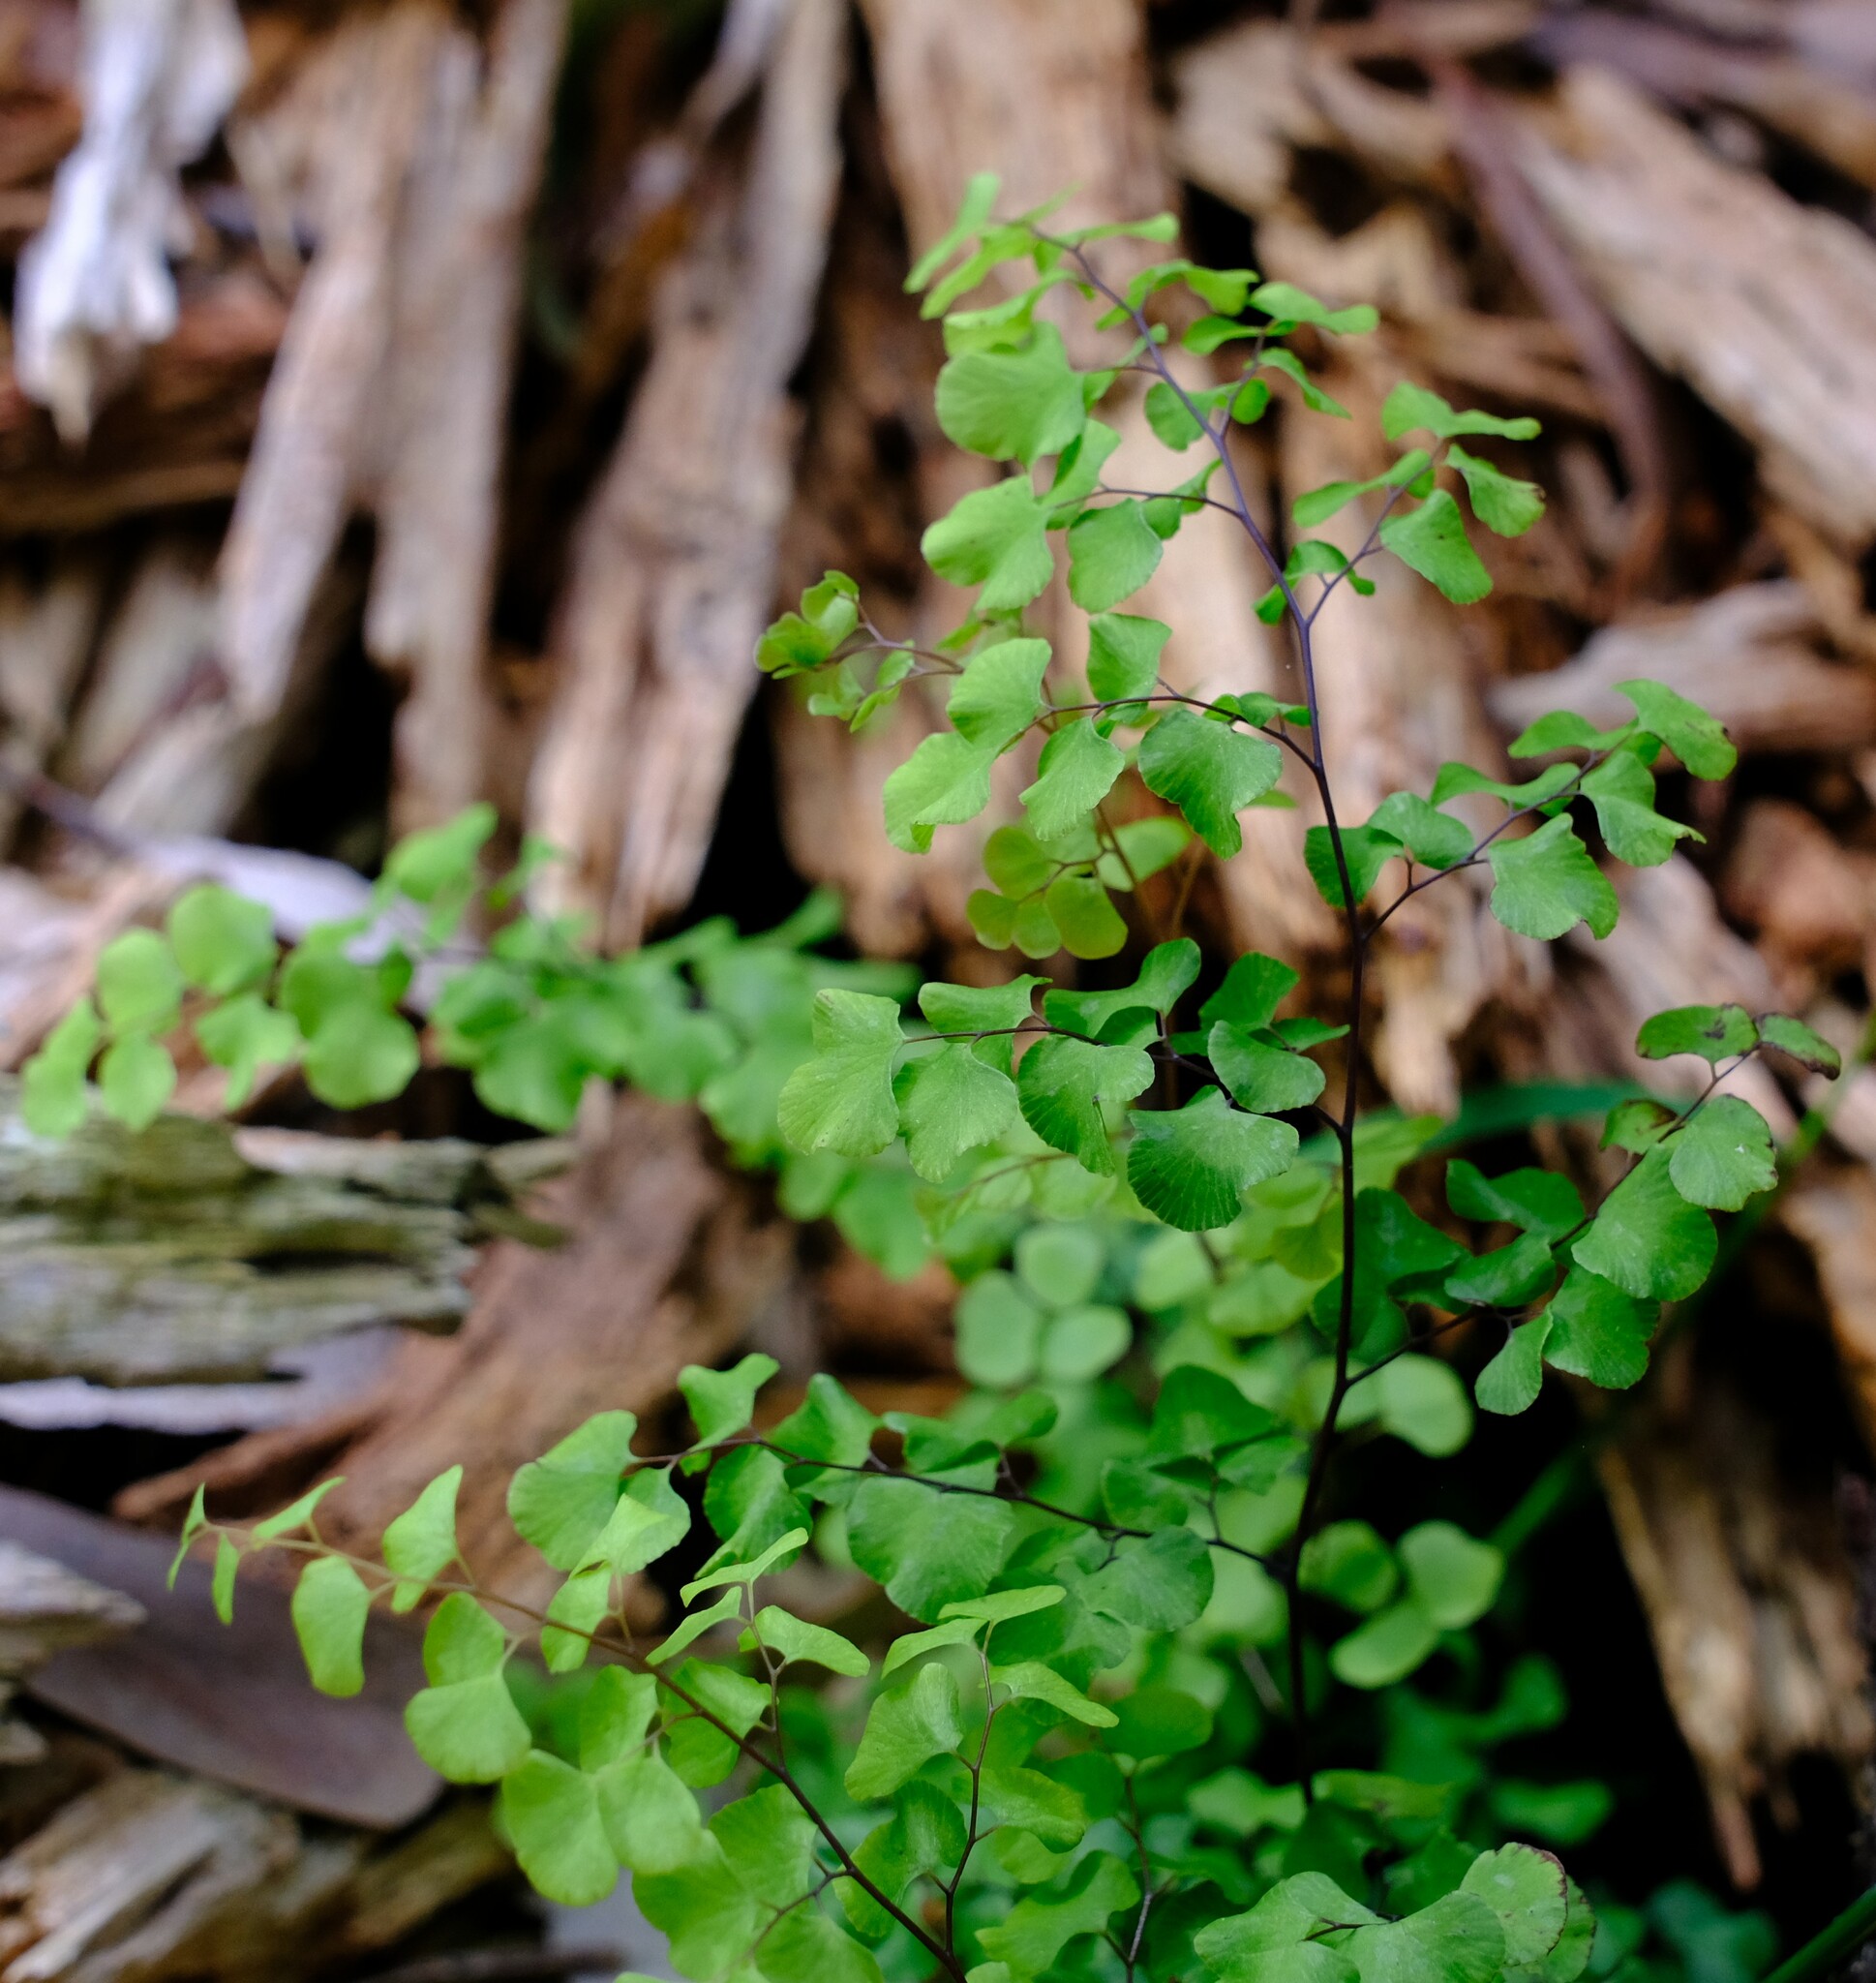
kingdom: Plantae
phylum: Tracheophyta
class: Polypodiopsida
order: Polypodiales
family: Pteridaceae
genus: Adiantum
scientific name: Adiantum aethiopicum
